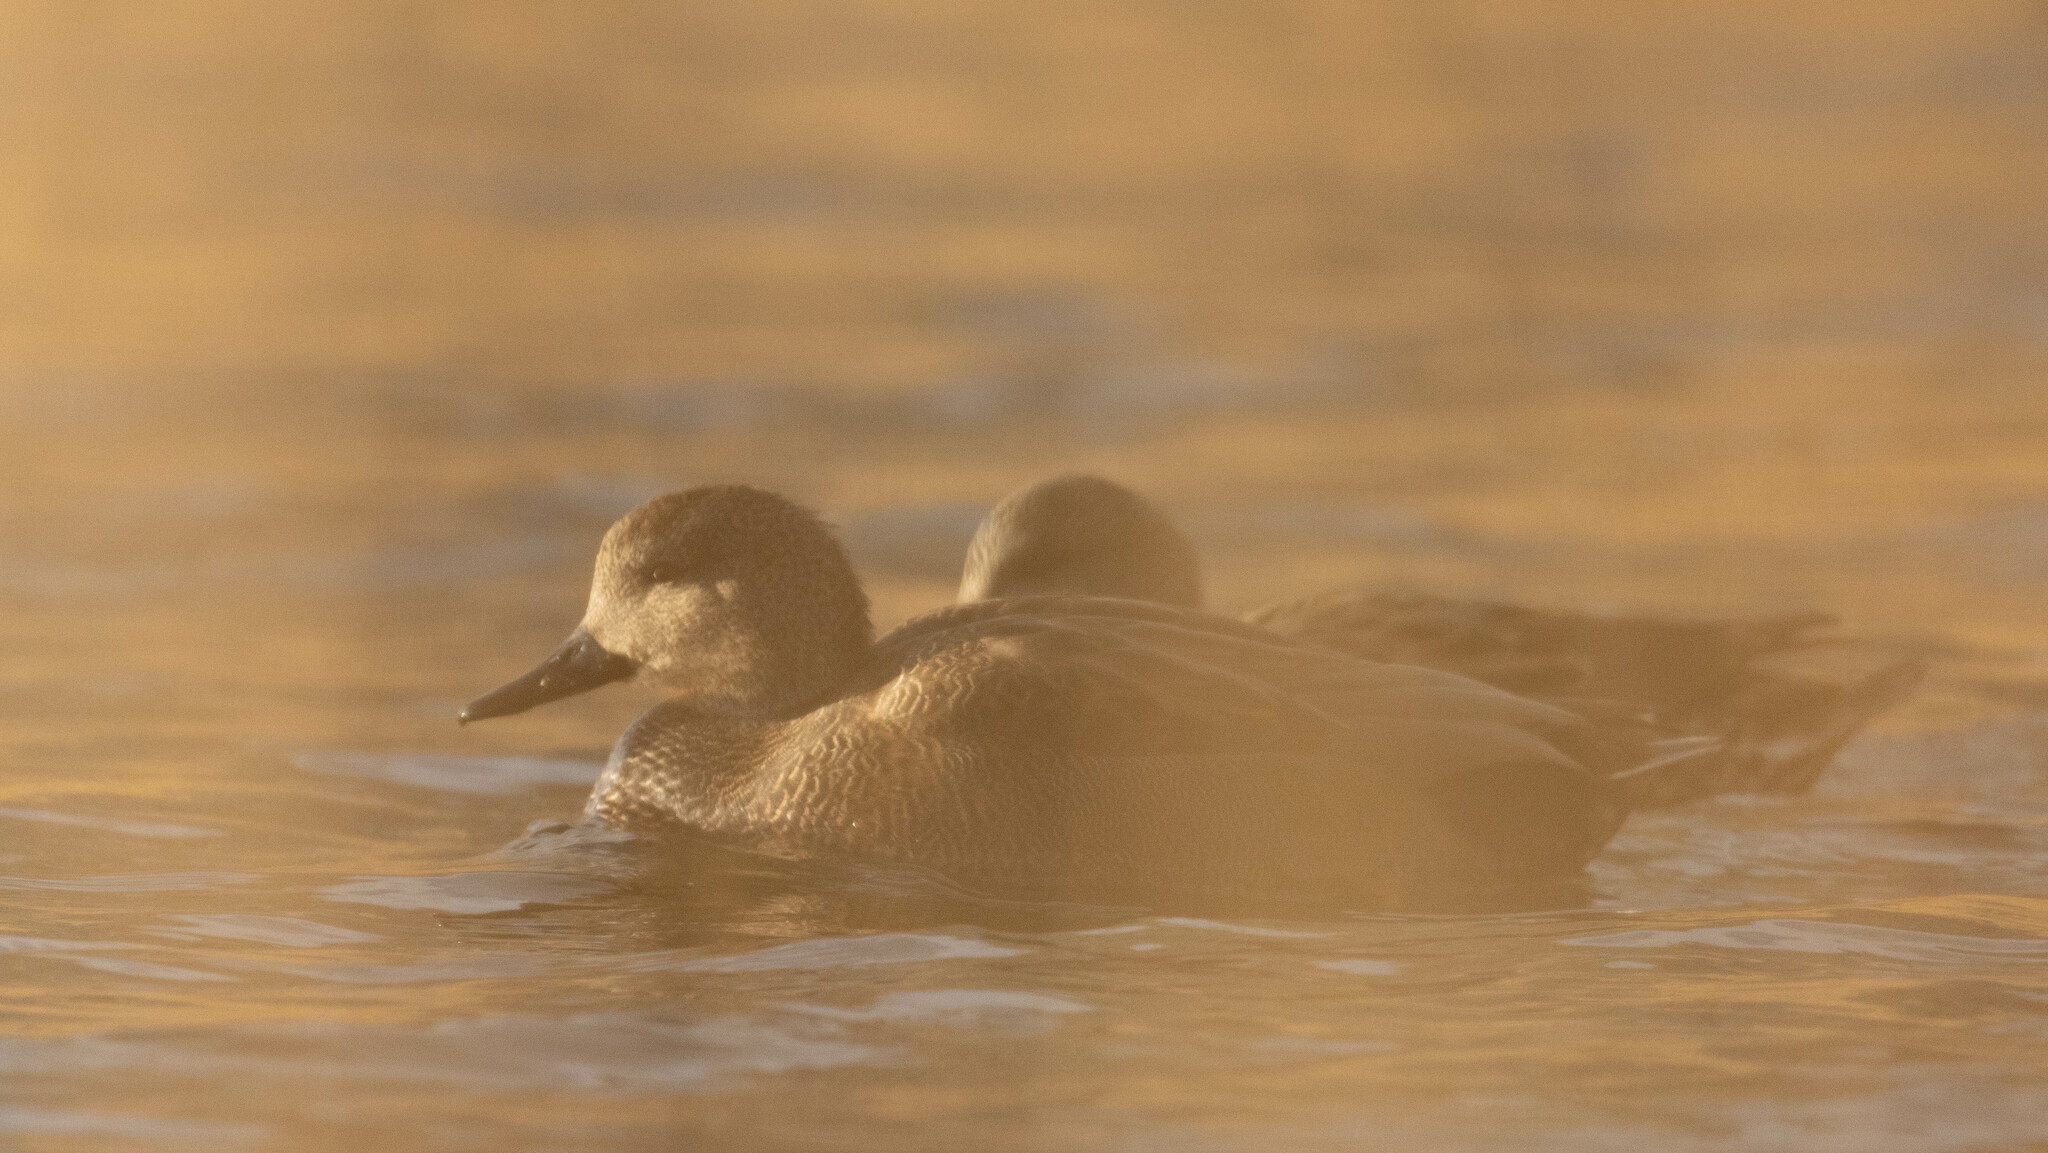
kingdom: Animalia
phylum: Chordata
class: Aves
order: Anseriformes
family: Anatidae
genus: Mareca
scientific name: Mareca strepera
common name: Gadwall
